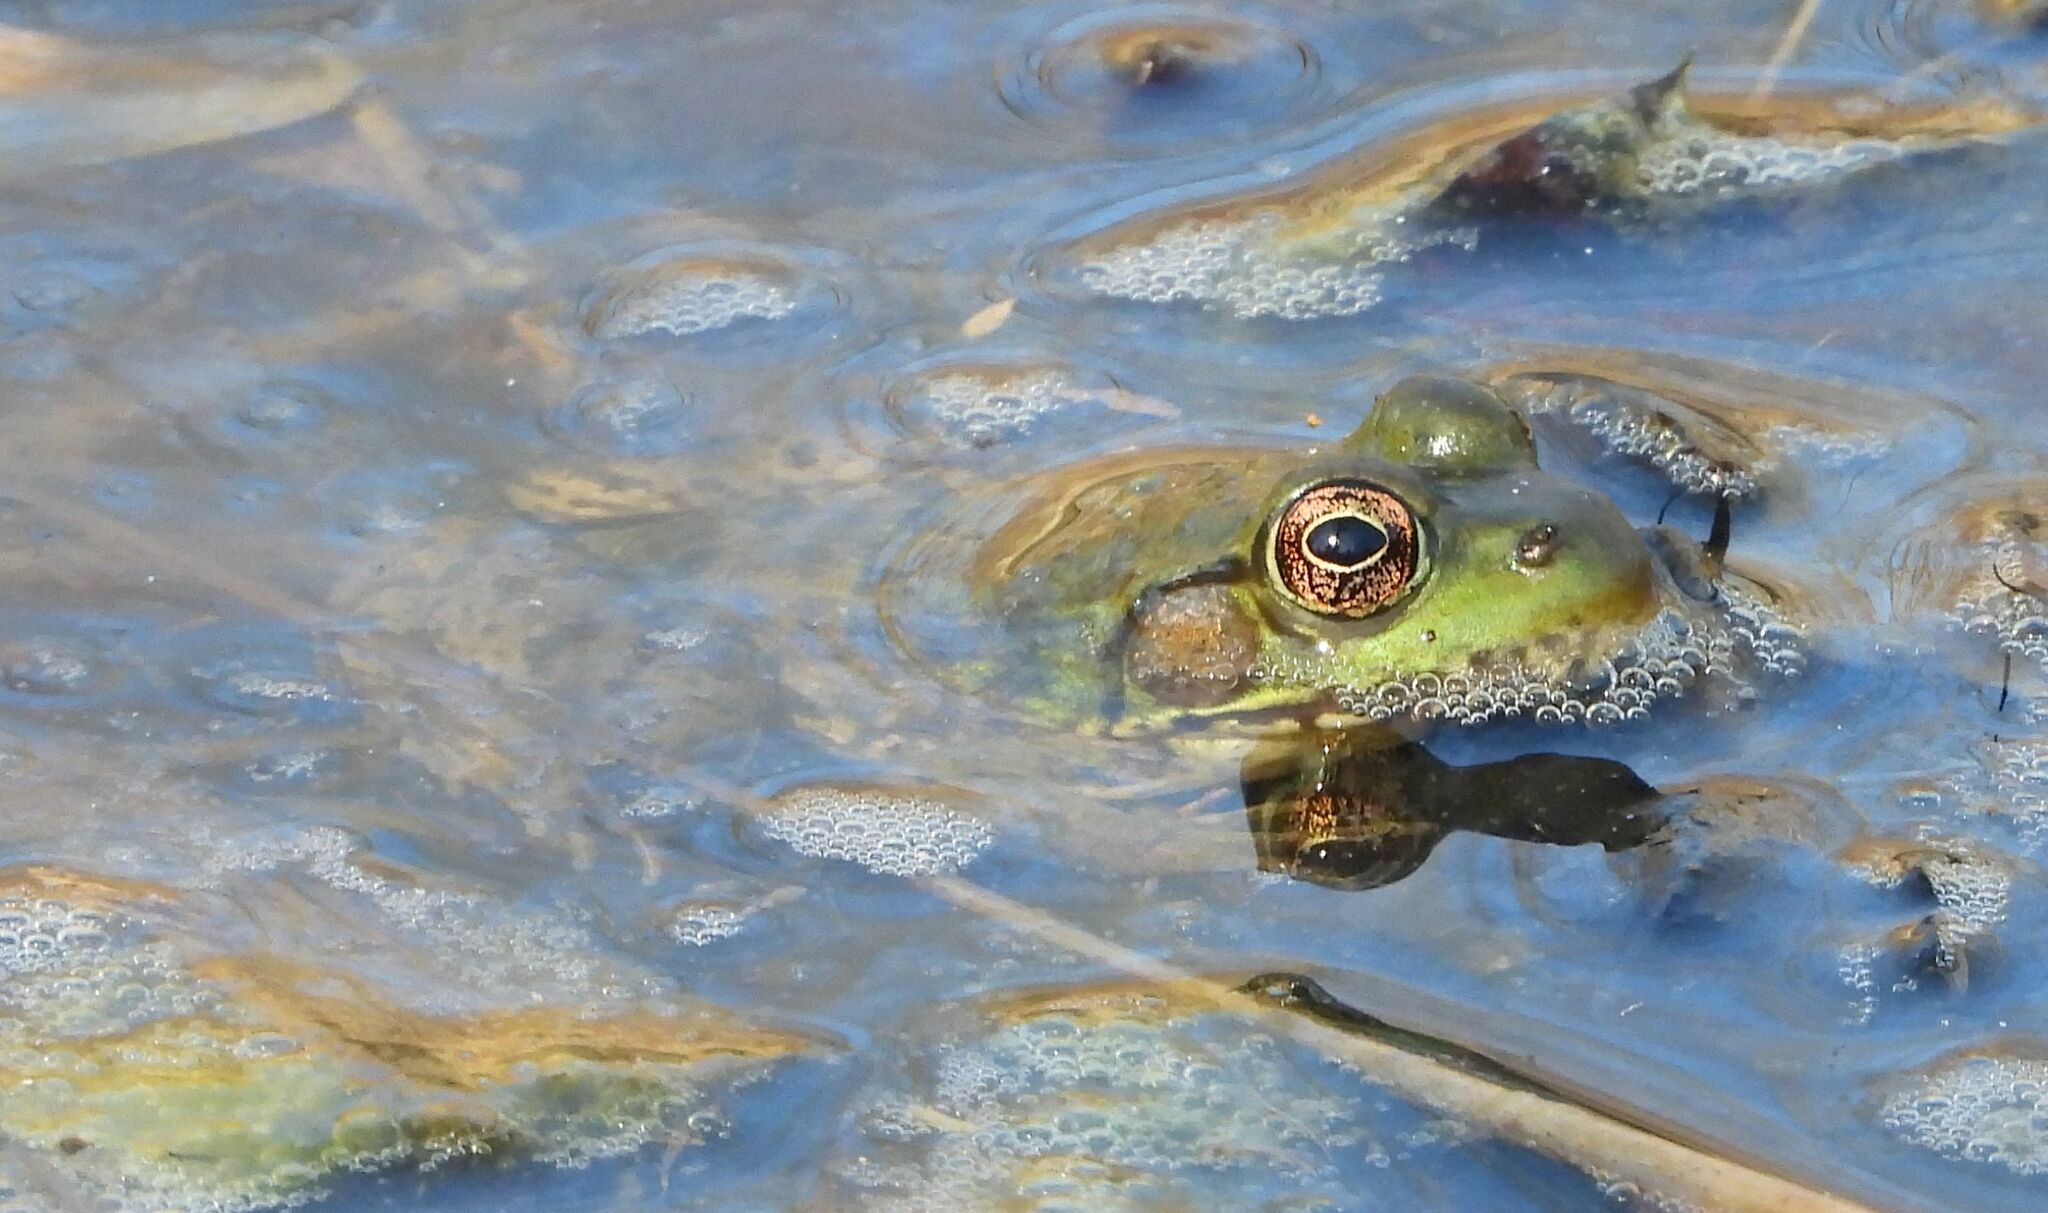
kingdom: Animalia
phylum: Chordata
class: Amphibia
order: Anura
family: Ranidae
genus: Lithobates
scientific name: Lithobates clamitans
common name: Green frog
